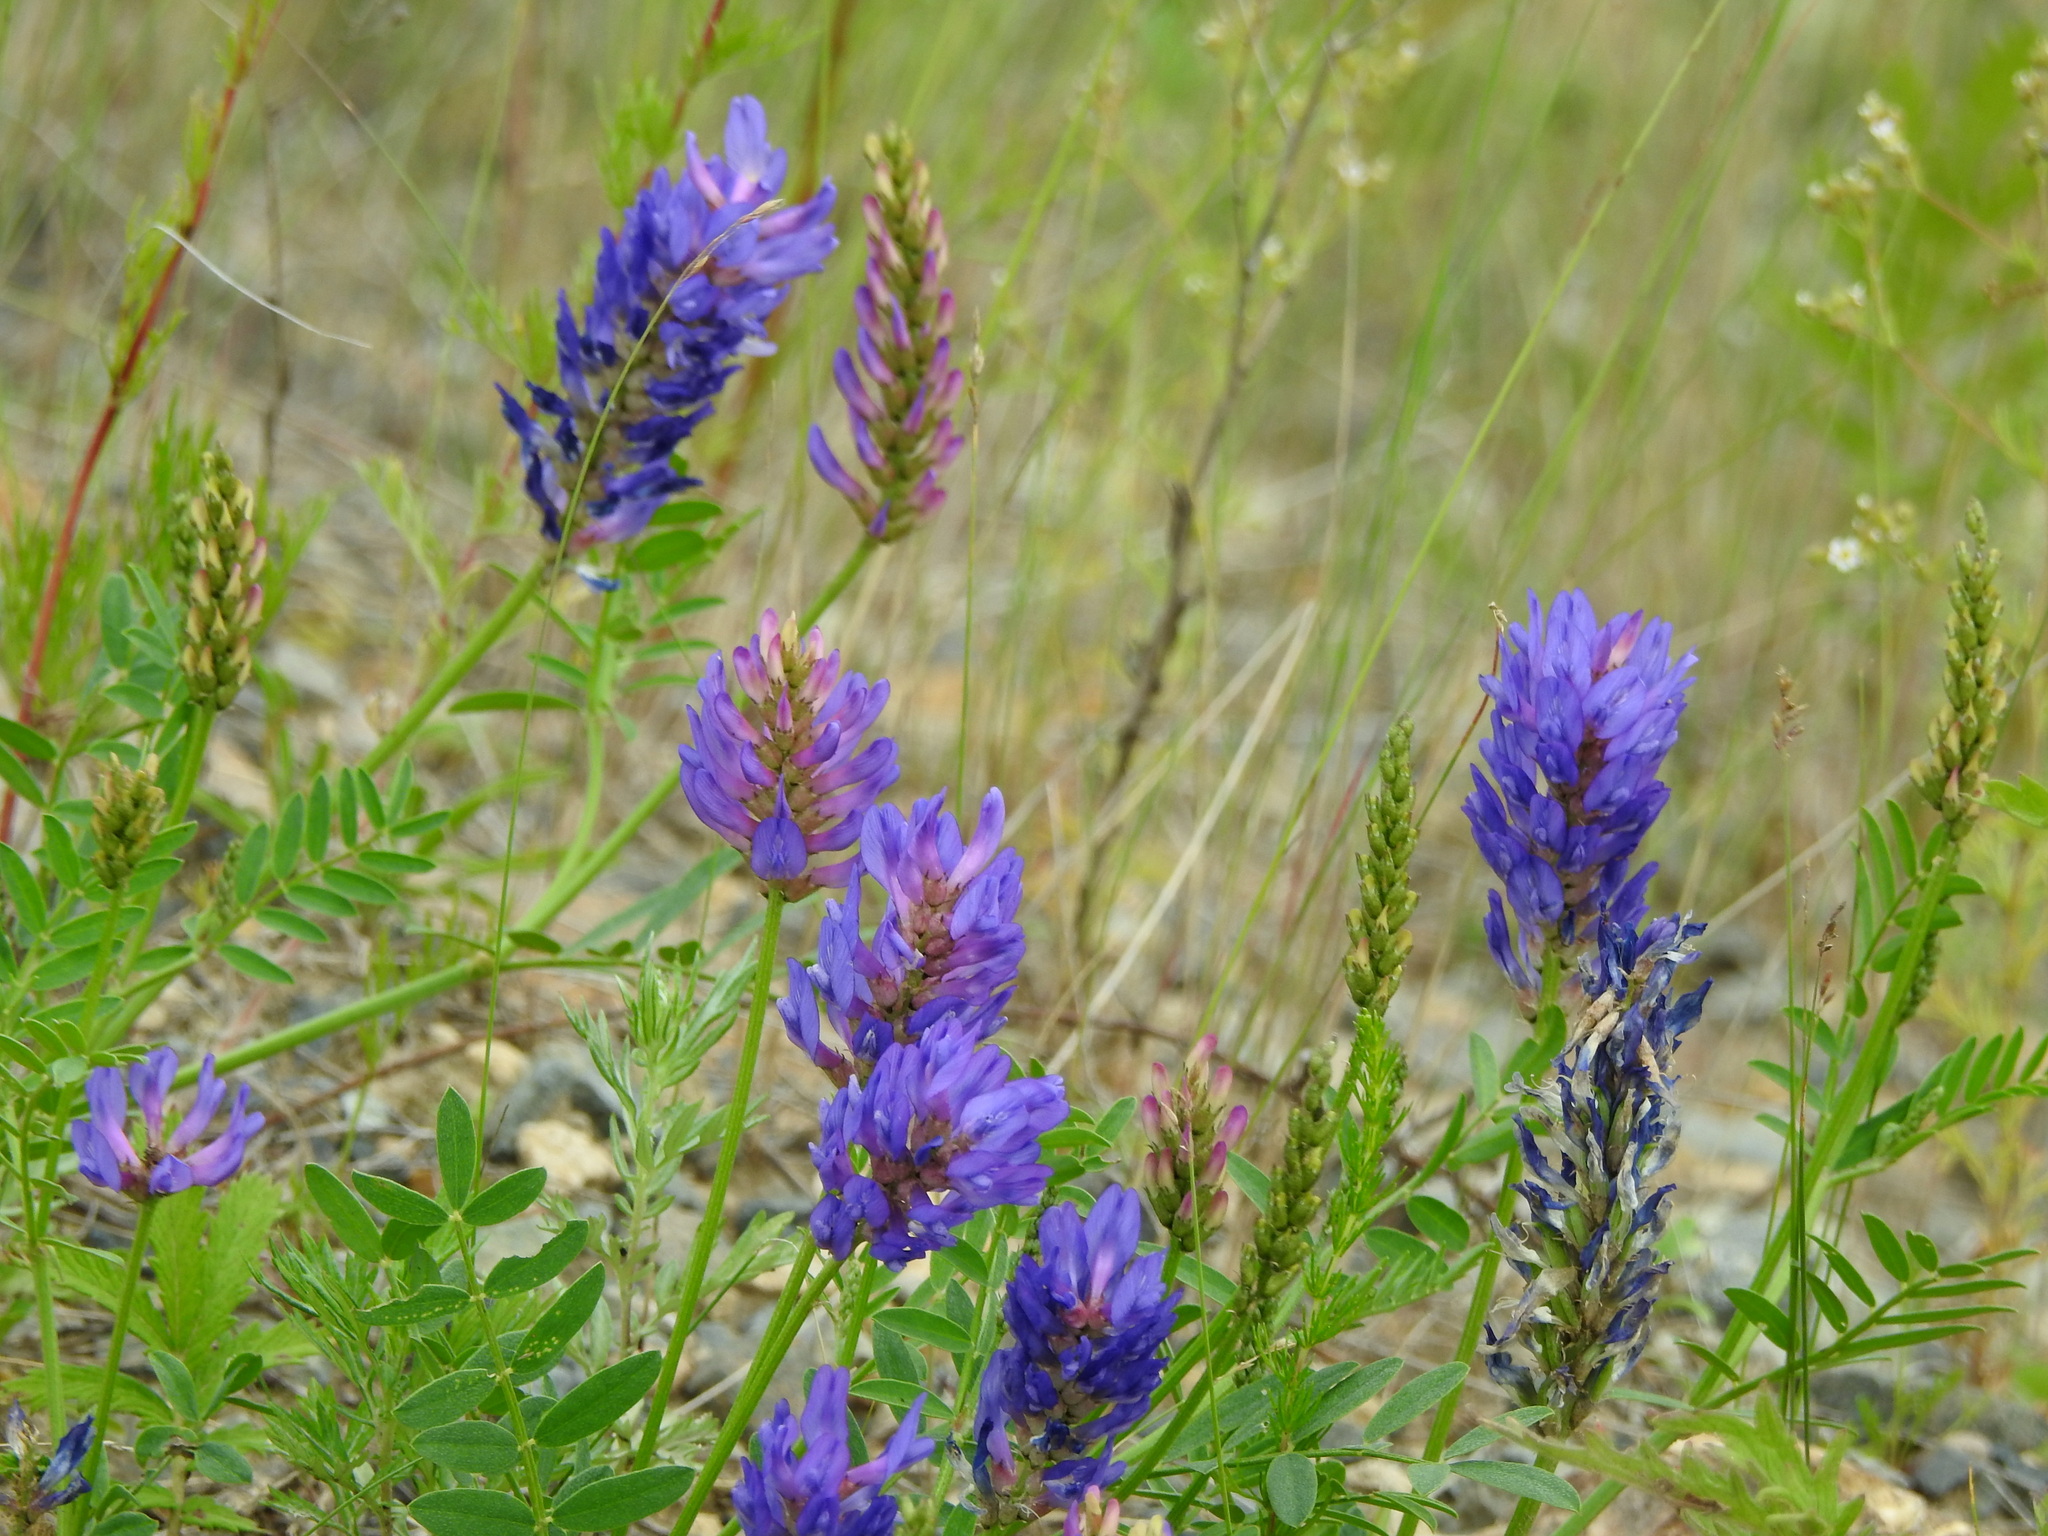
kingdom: Plantae
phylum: Tracheophyta
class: Magnoliopsida
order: Fabales
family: Fabaceae
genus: Astragalus
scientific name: Astragalus laxmannii
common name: Laxmann's milk-vetch
